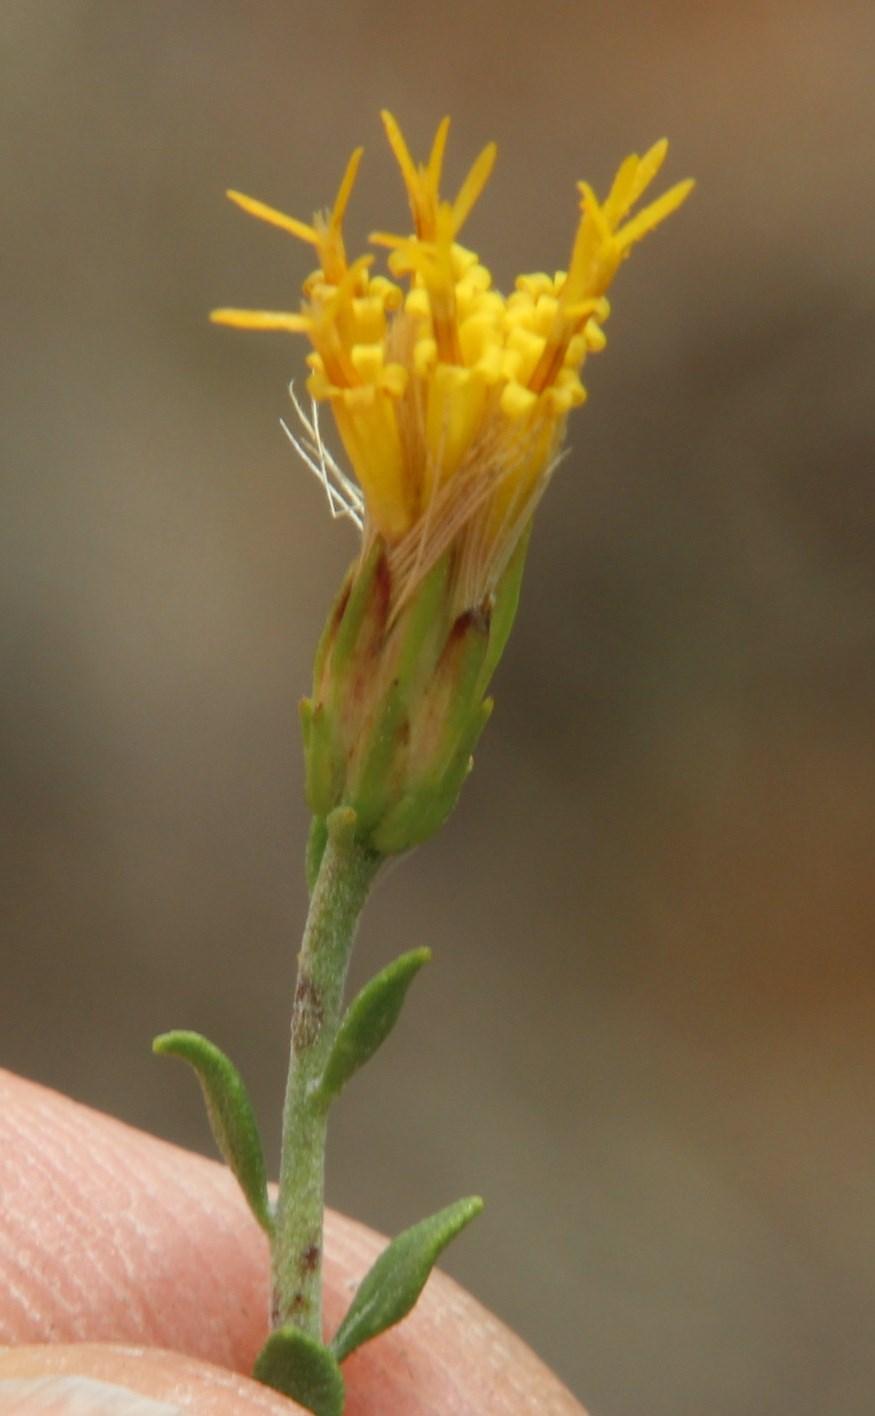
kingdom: Plantae
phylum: Tracheophyta
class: Magnoliopsida
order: Asterales
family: Asteraceae
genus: Pegolettia
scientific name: Pegolettia retrofracta
